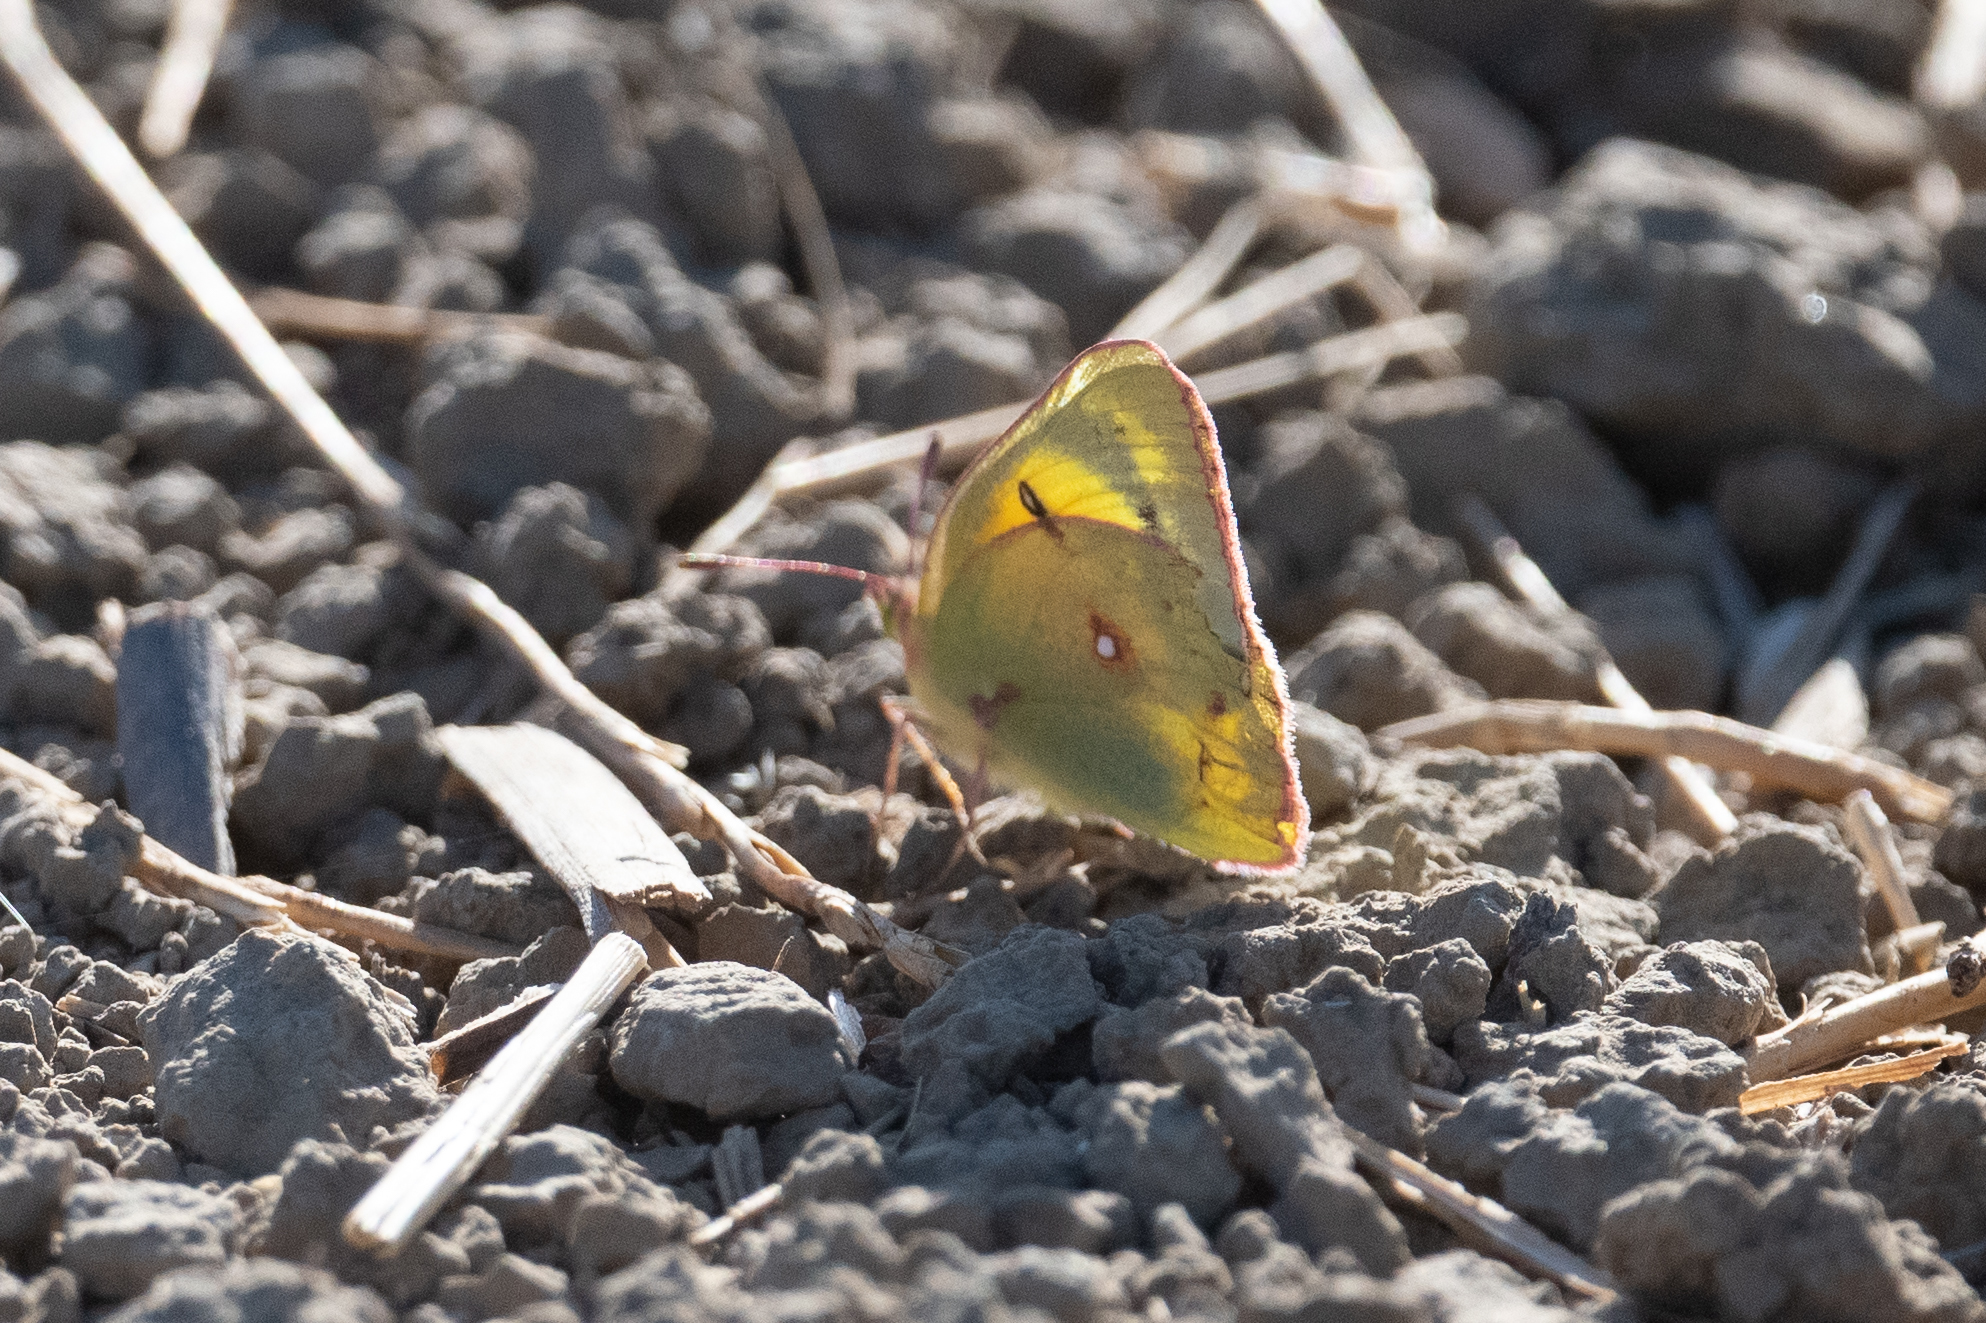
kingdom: Animalia
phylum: Arthropoda
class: Insecta
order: Lepidoptera
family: Pieridae
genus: Colias
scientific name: Colias eurytheme
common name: Alfalfa butterfly
